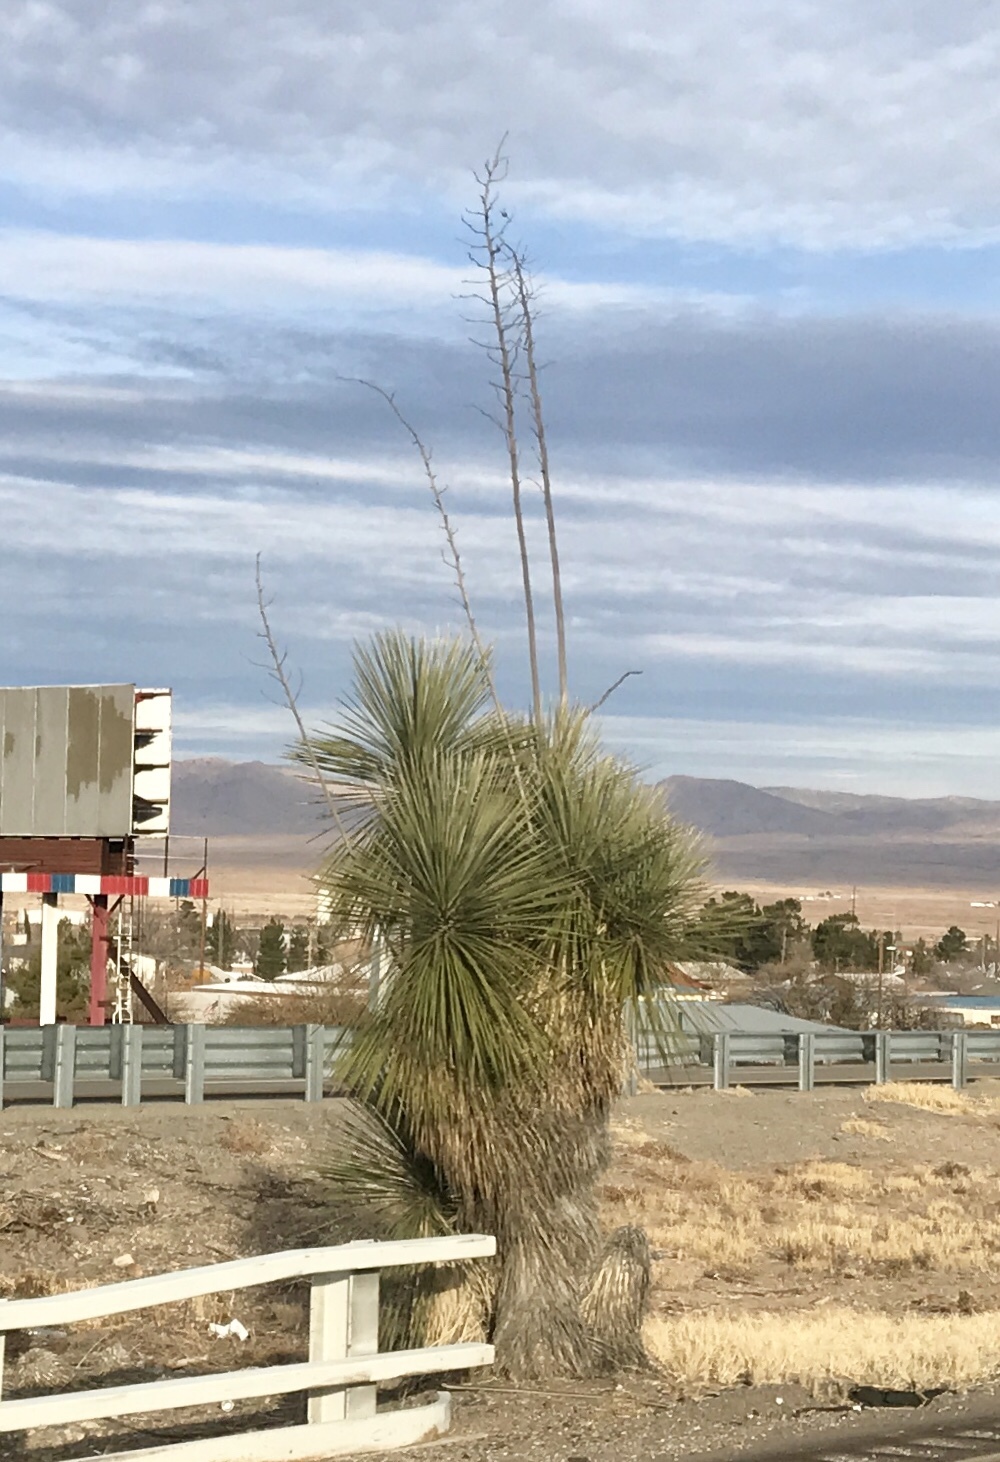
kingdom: Plantae
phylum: Tracheophyta
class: Liliopsida
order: Asparagales
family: Asparagaceae
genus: Yucca
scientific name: Yucca elata
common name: Palmella
